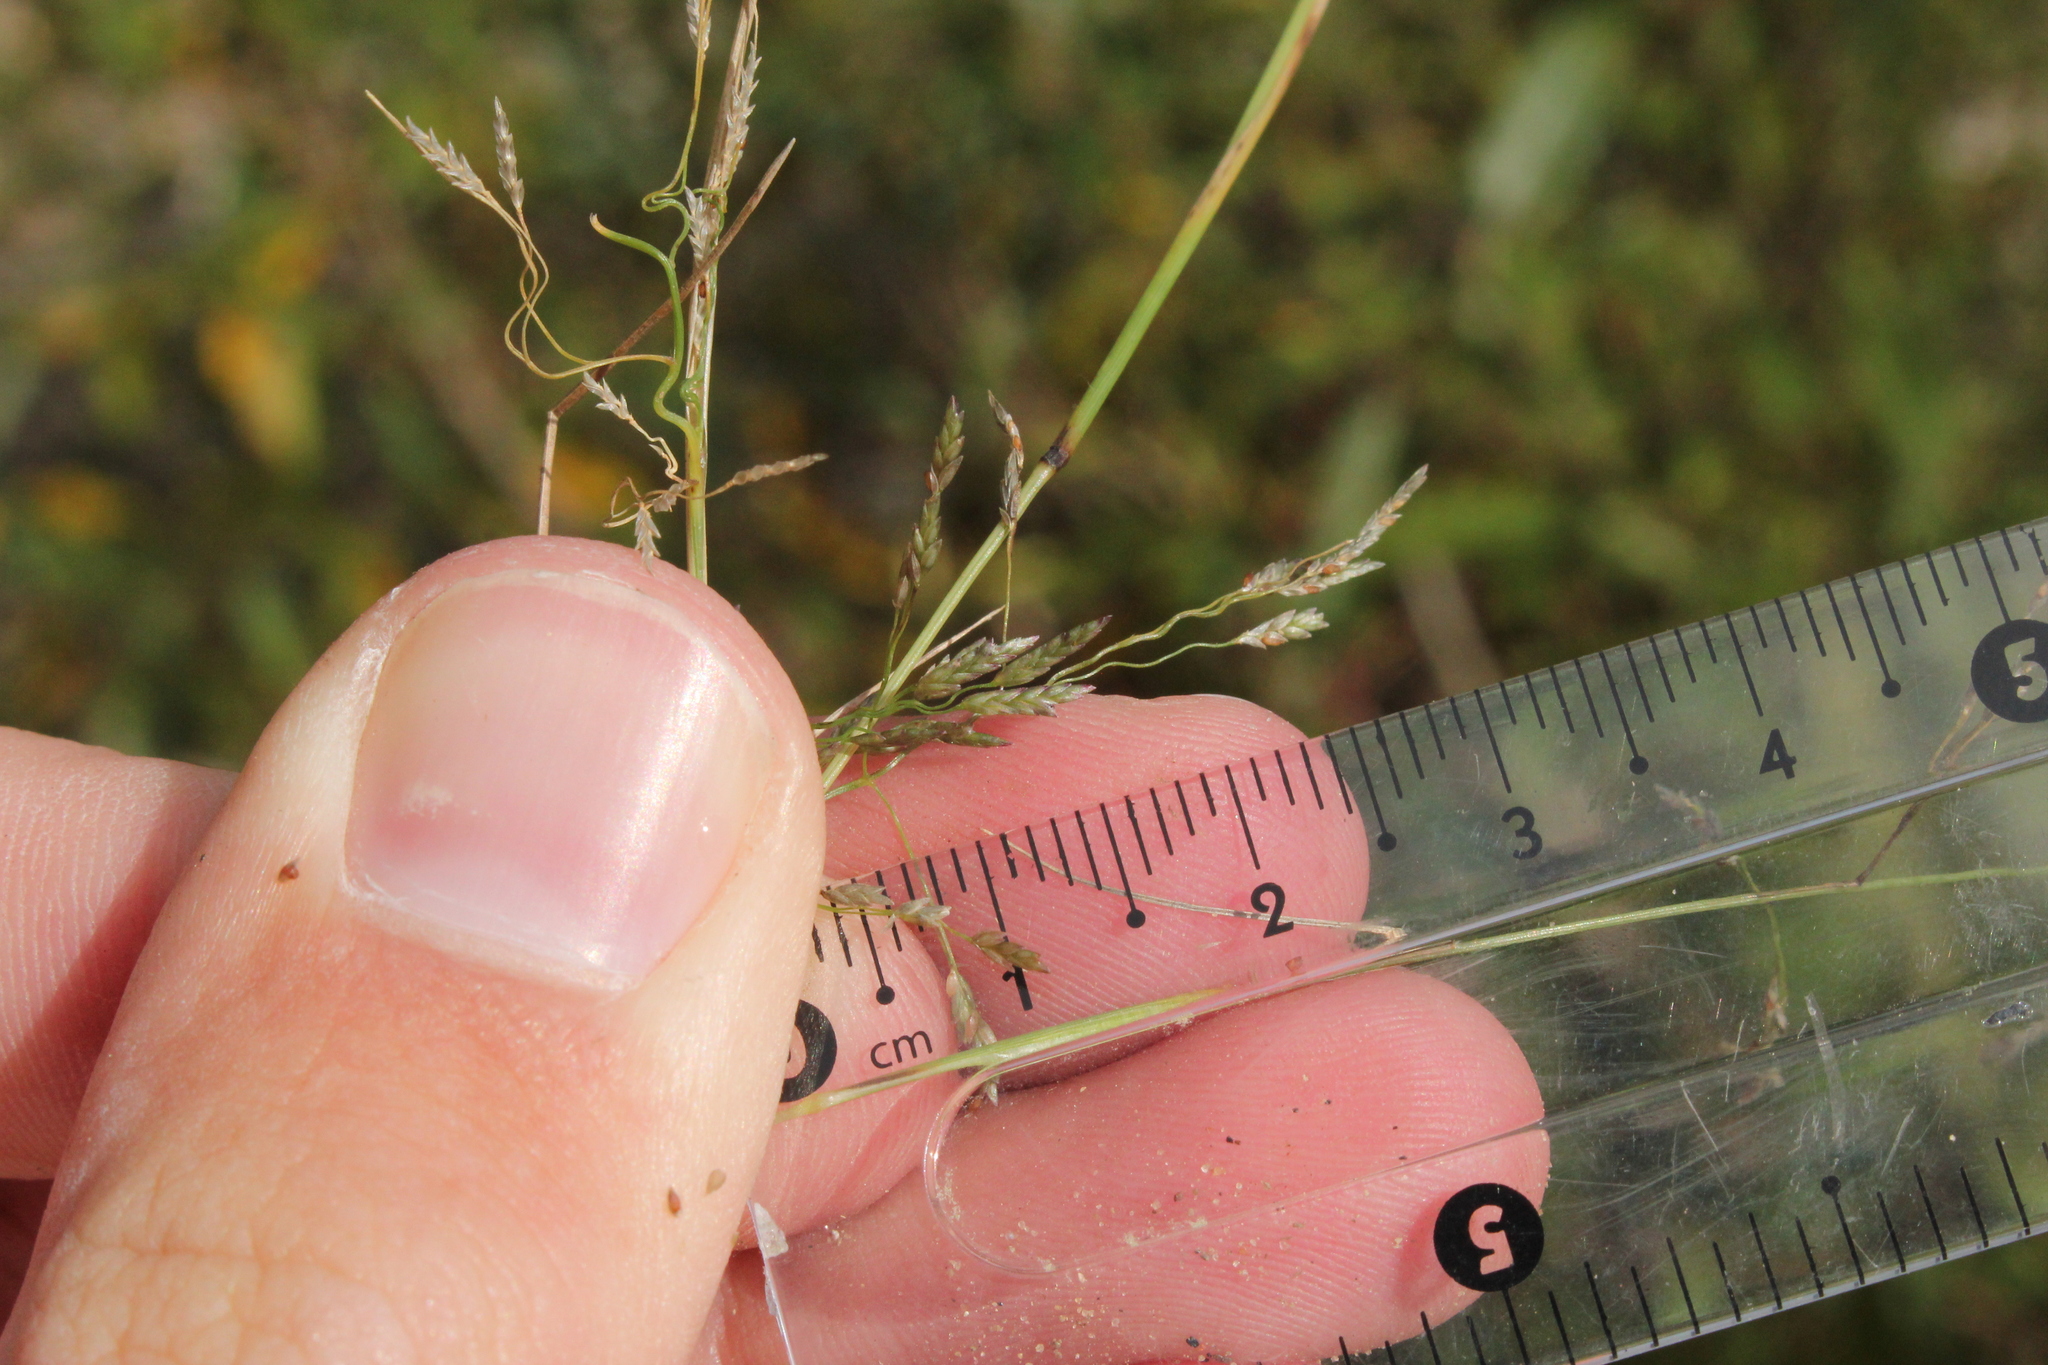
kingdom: Plantae
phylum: Tracheophyta
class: Liliopsida
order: Poales
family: Poaceae
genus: Eragrostis
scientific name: Eragrostis pectinacea
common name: Tufted lovegrass
